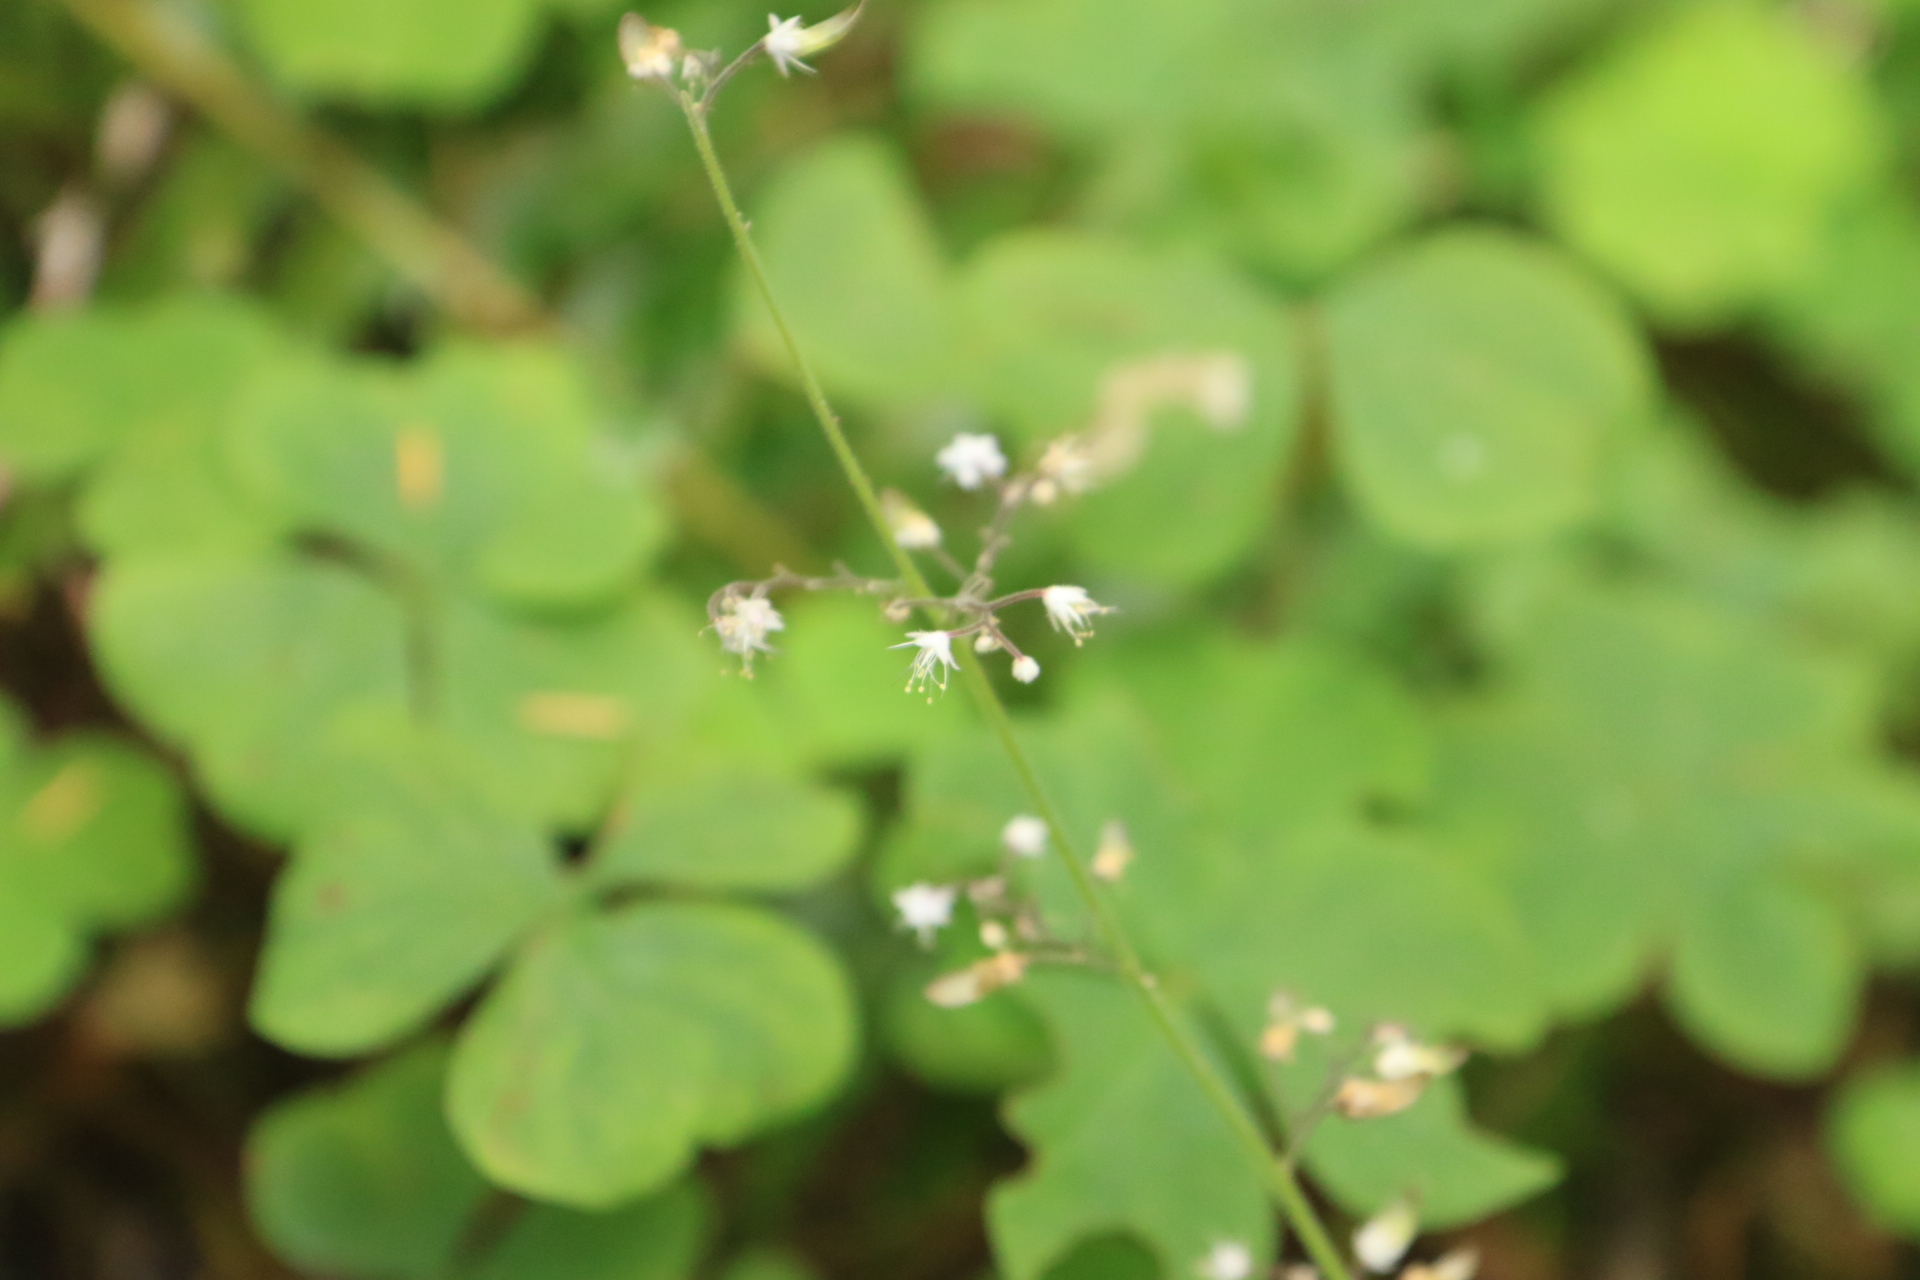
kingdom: Plantae
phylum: Tracheophyta
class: Magnoliopsida
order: Saxifragales
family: Saxifragaceae
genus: Tiarella
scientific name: Tiarella trifoliata
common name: Sugar-scoop
